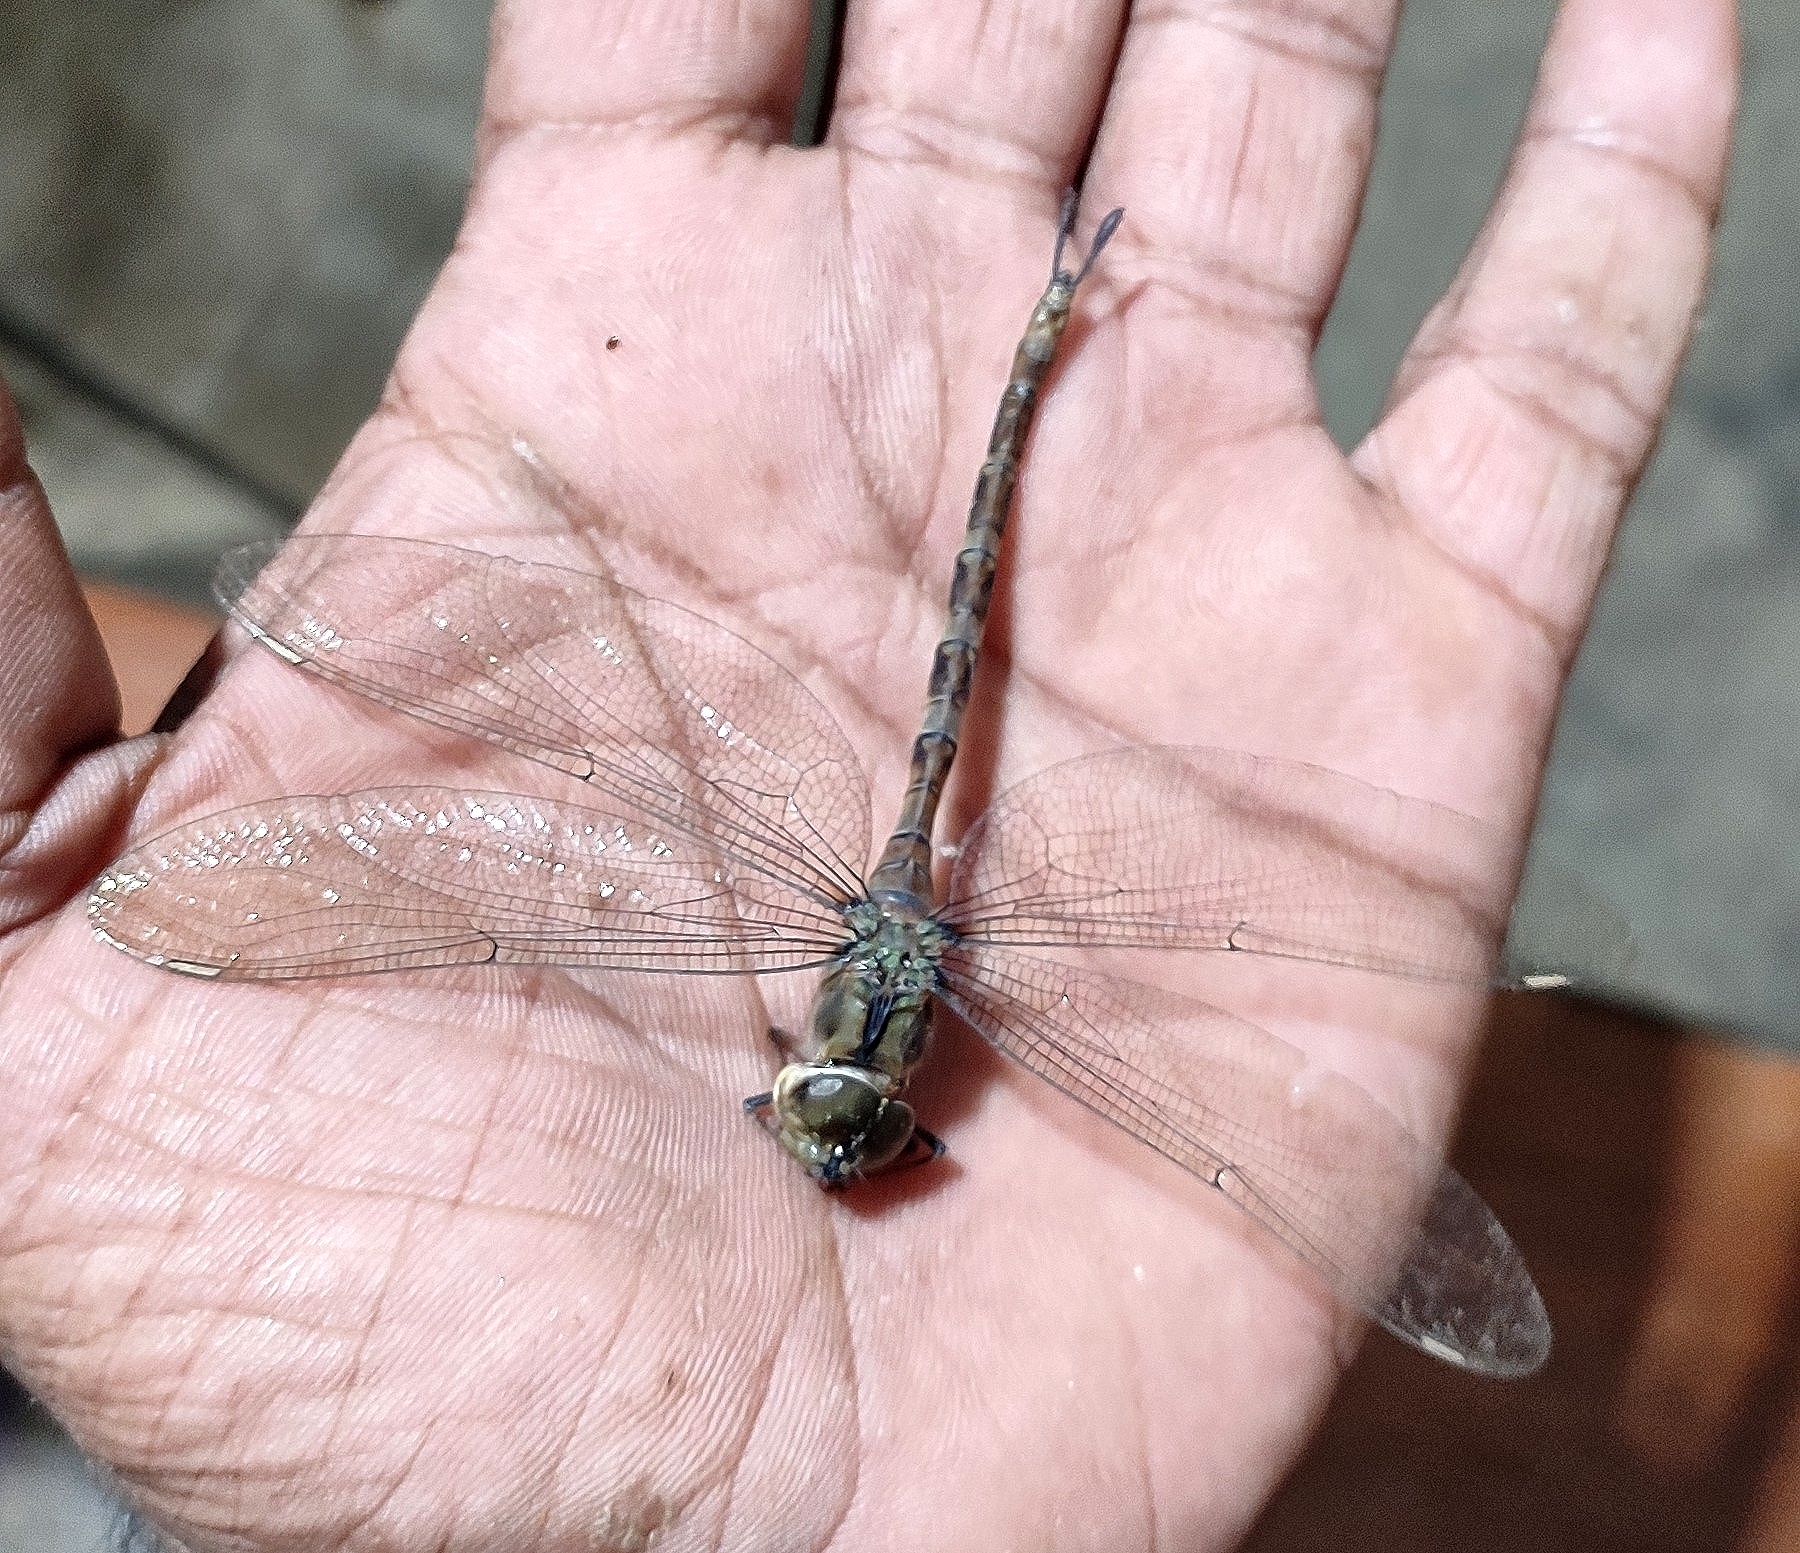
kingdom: Animalia
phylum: Arthropoda
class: Insecta
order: Odonata
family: Aeshnidae
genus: Gynacantha
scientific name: Gynacantha dravida
